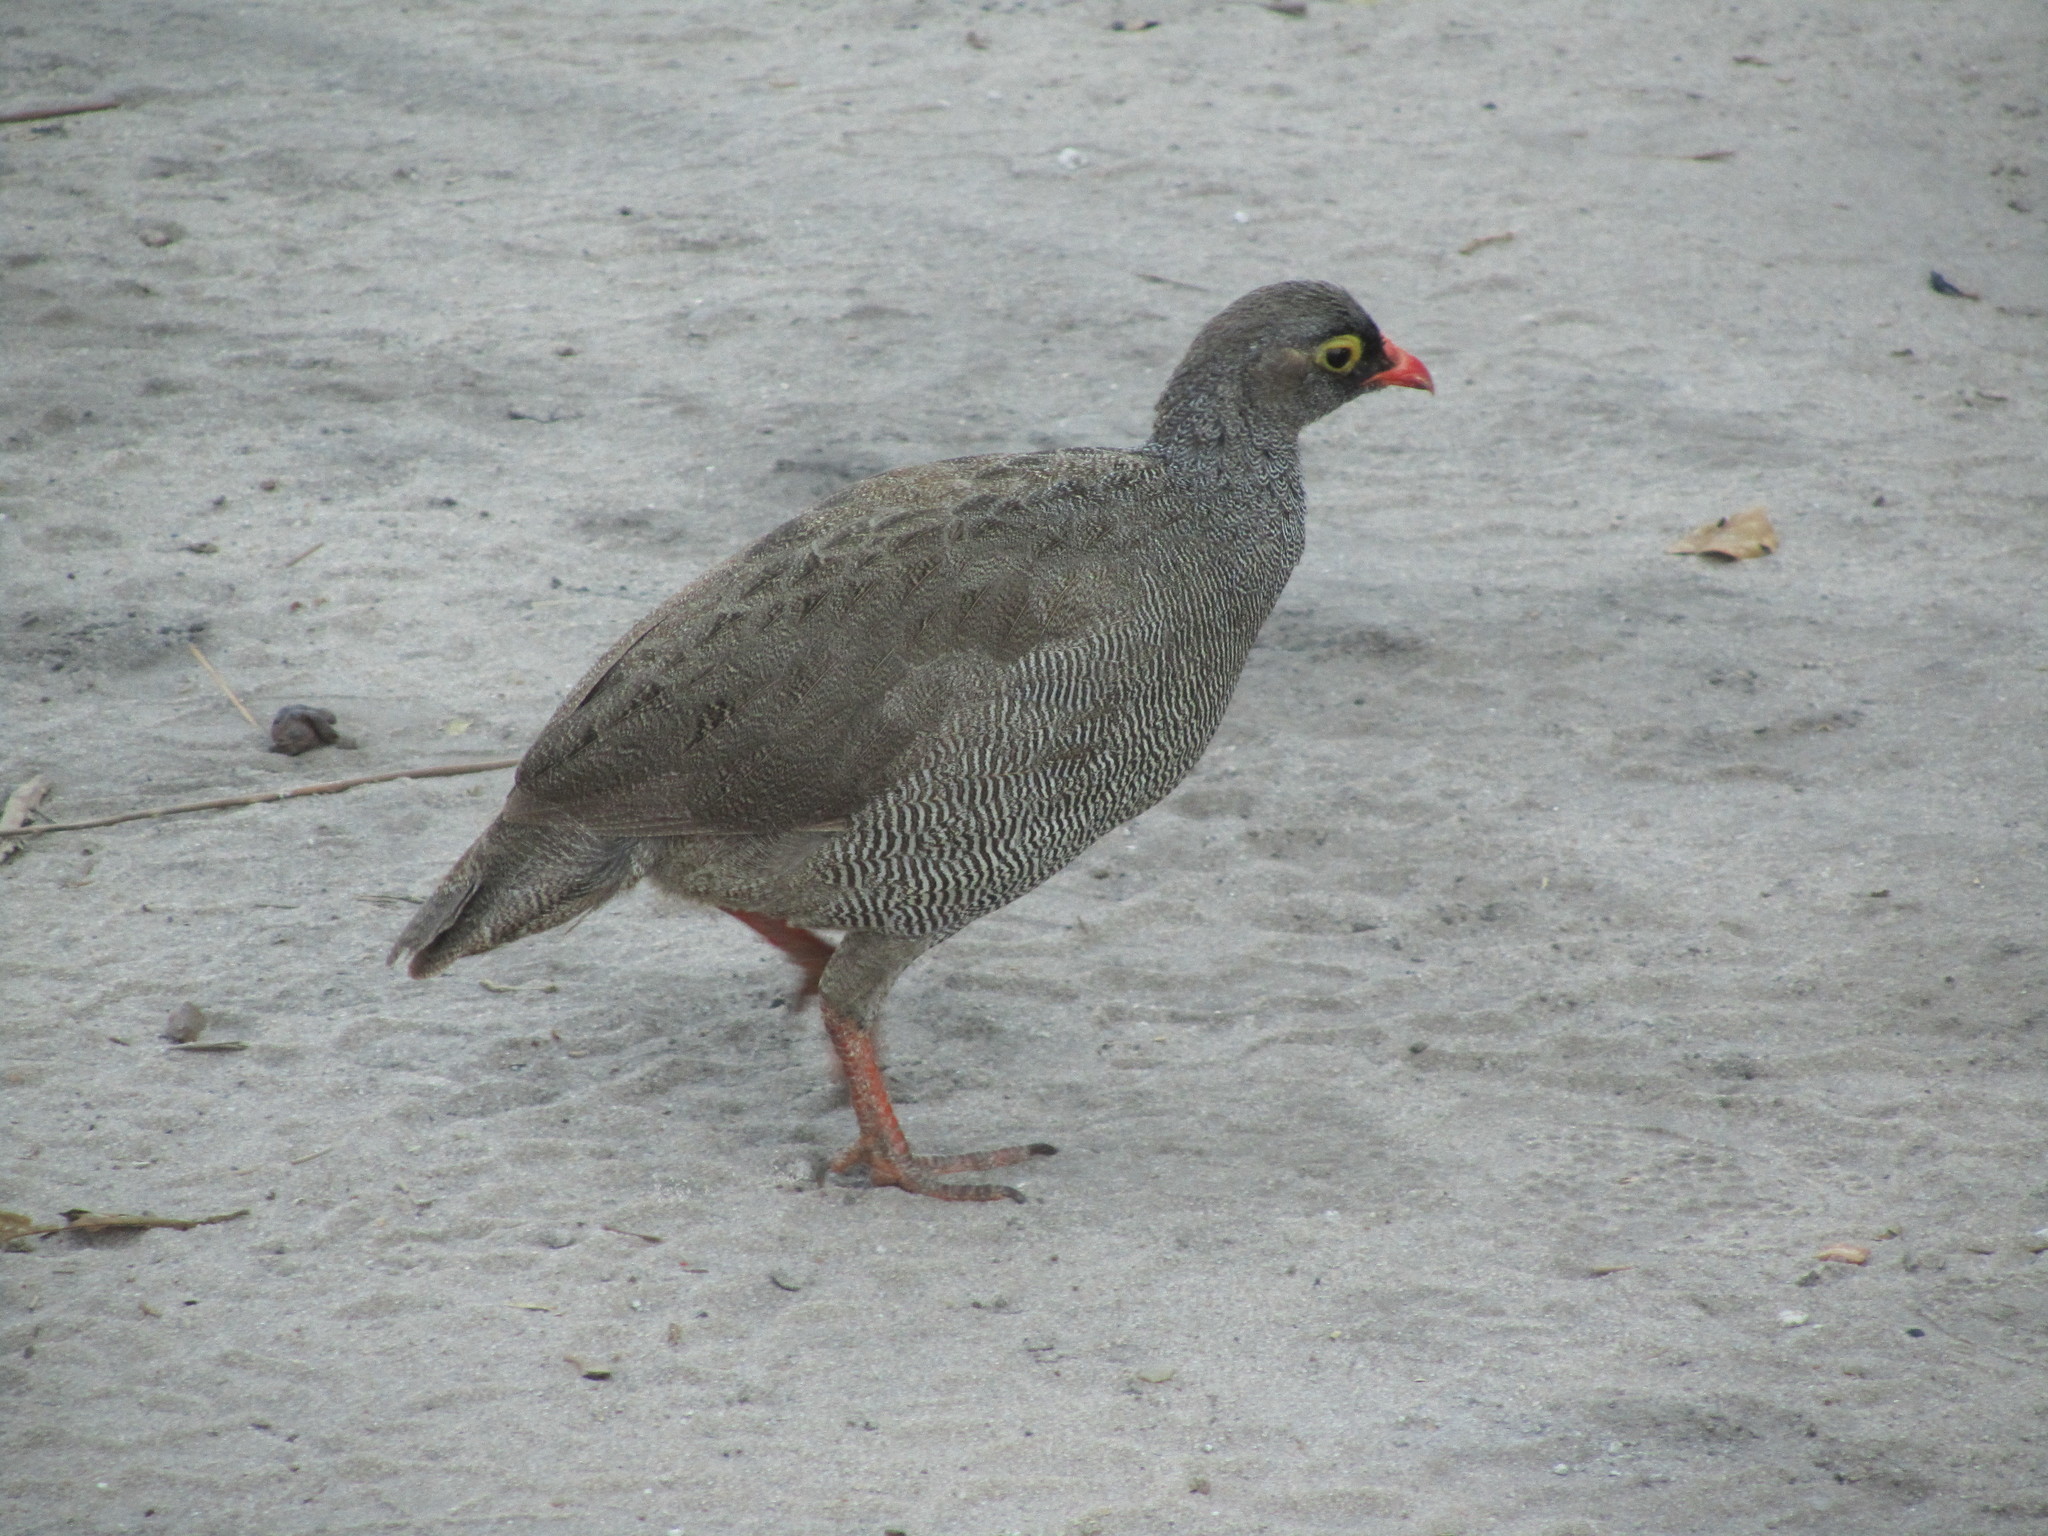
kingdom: Animalia
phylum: Chordata
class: Aves
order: Galliformes
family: Phasianidae
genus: Pternistis
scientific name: Pternistis adspersus
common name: Red-billed spurfowl
